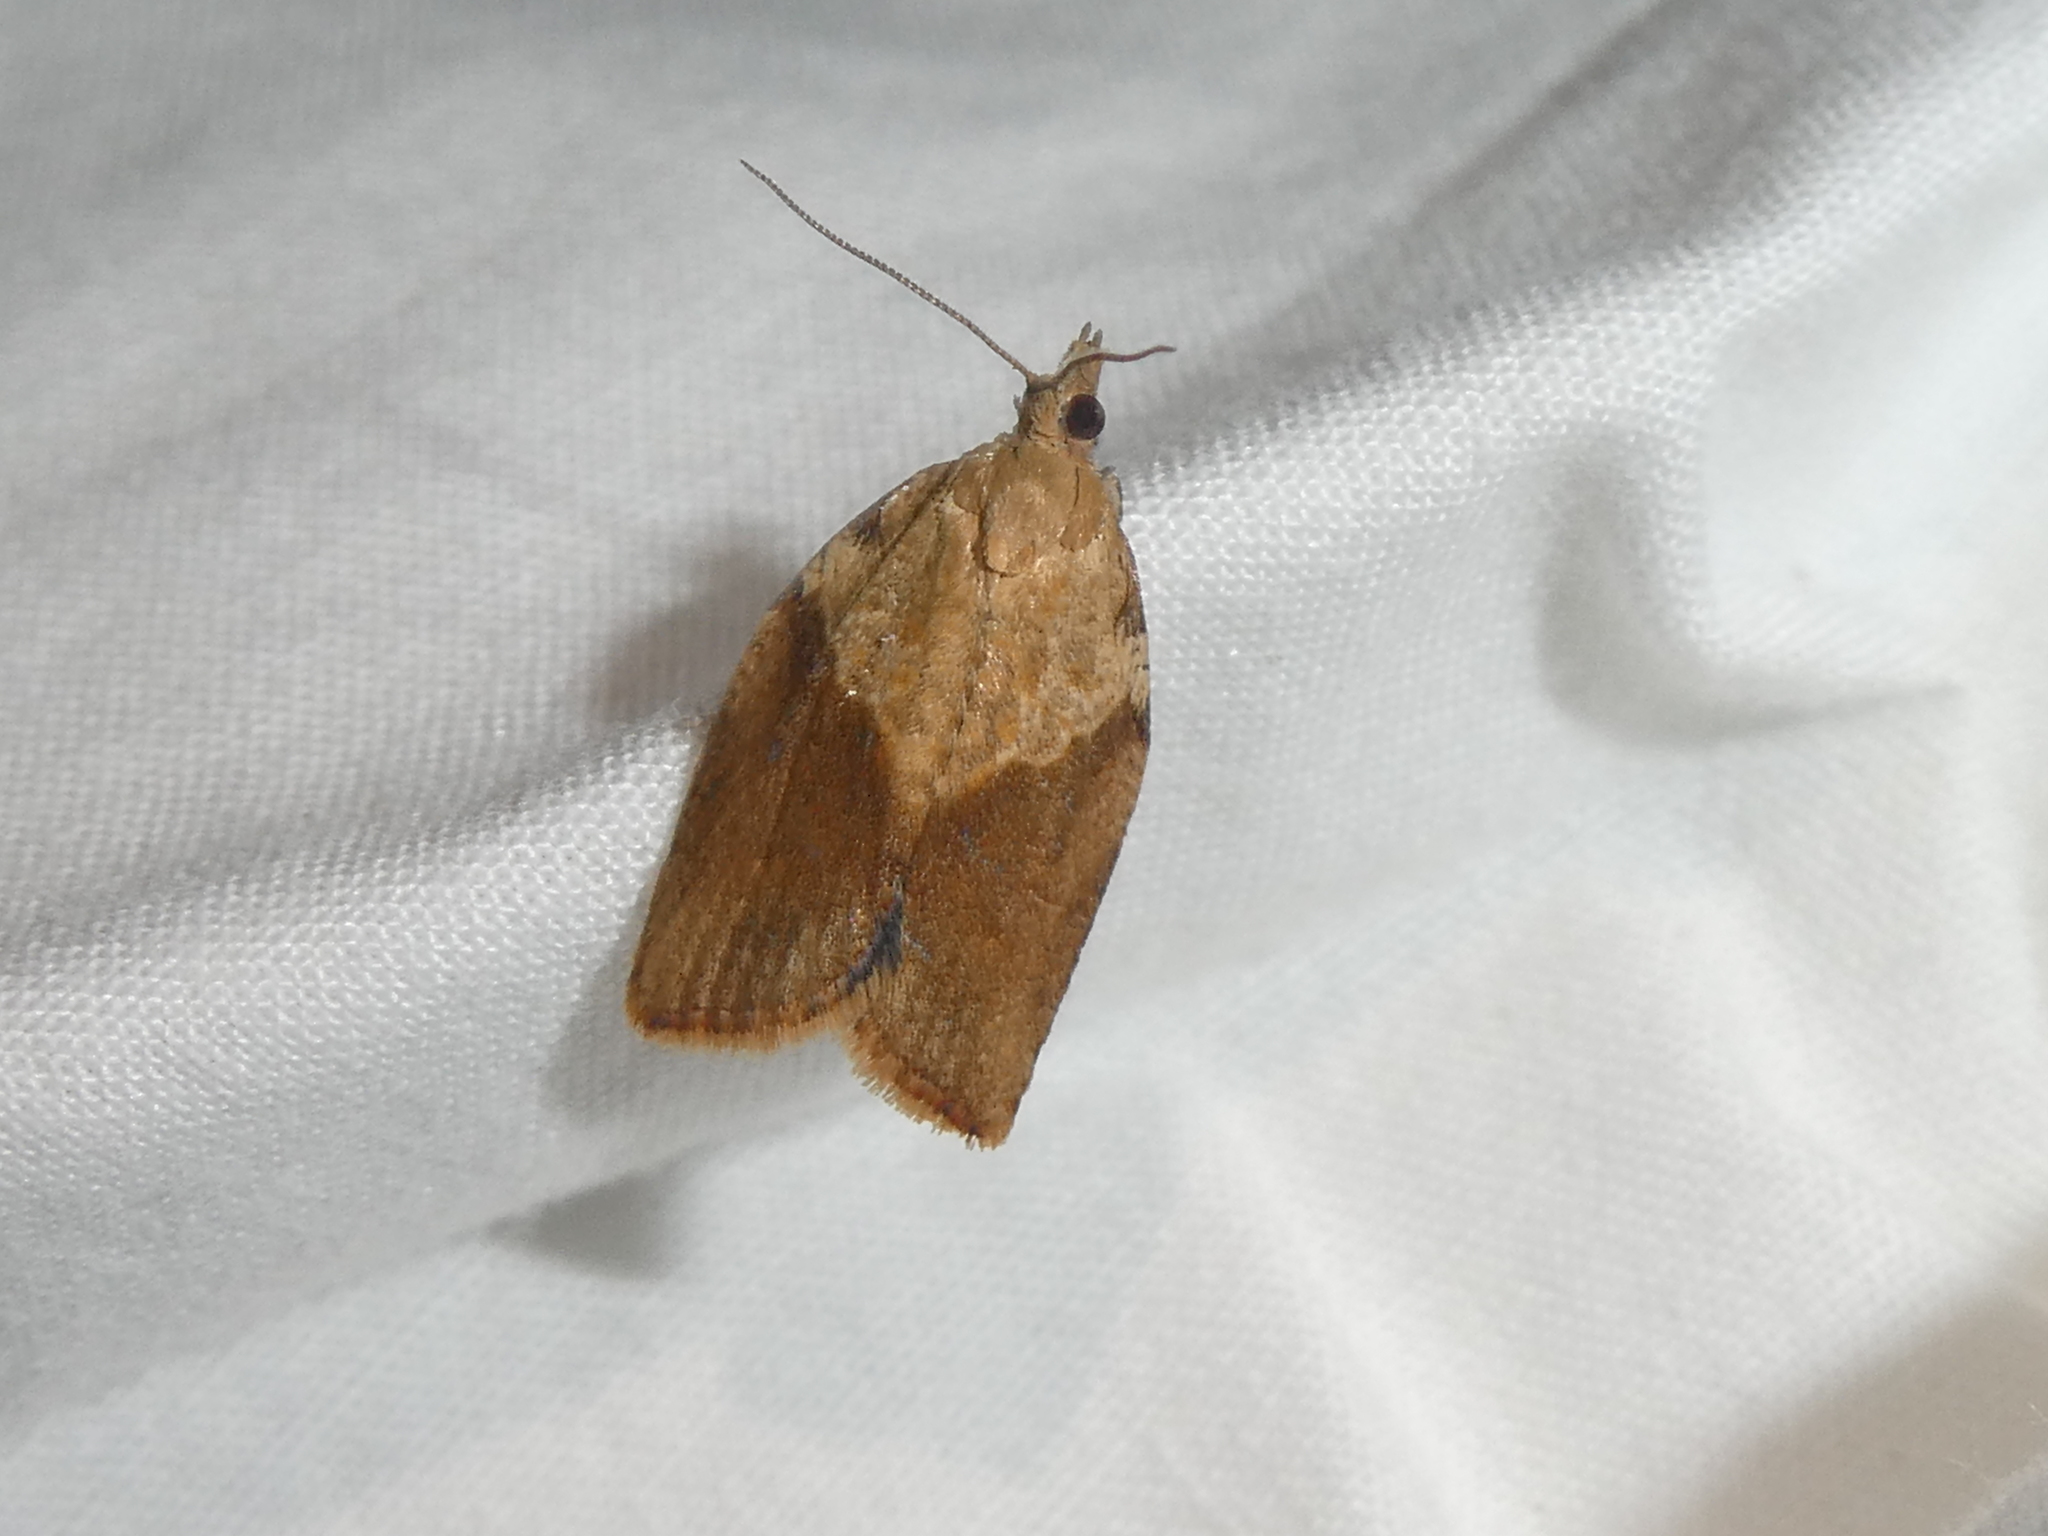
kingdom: Animalia
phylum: Arthropoda
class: Insecta
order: Lepidoptera
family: Tortricidae
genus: Epiphyas
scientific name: Epiphyas postvittana
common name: Light brown apple moth
